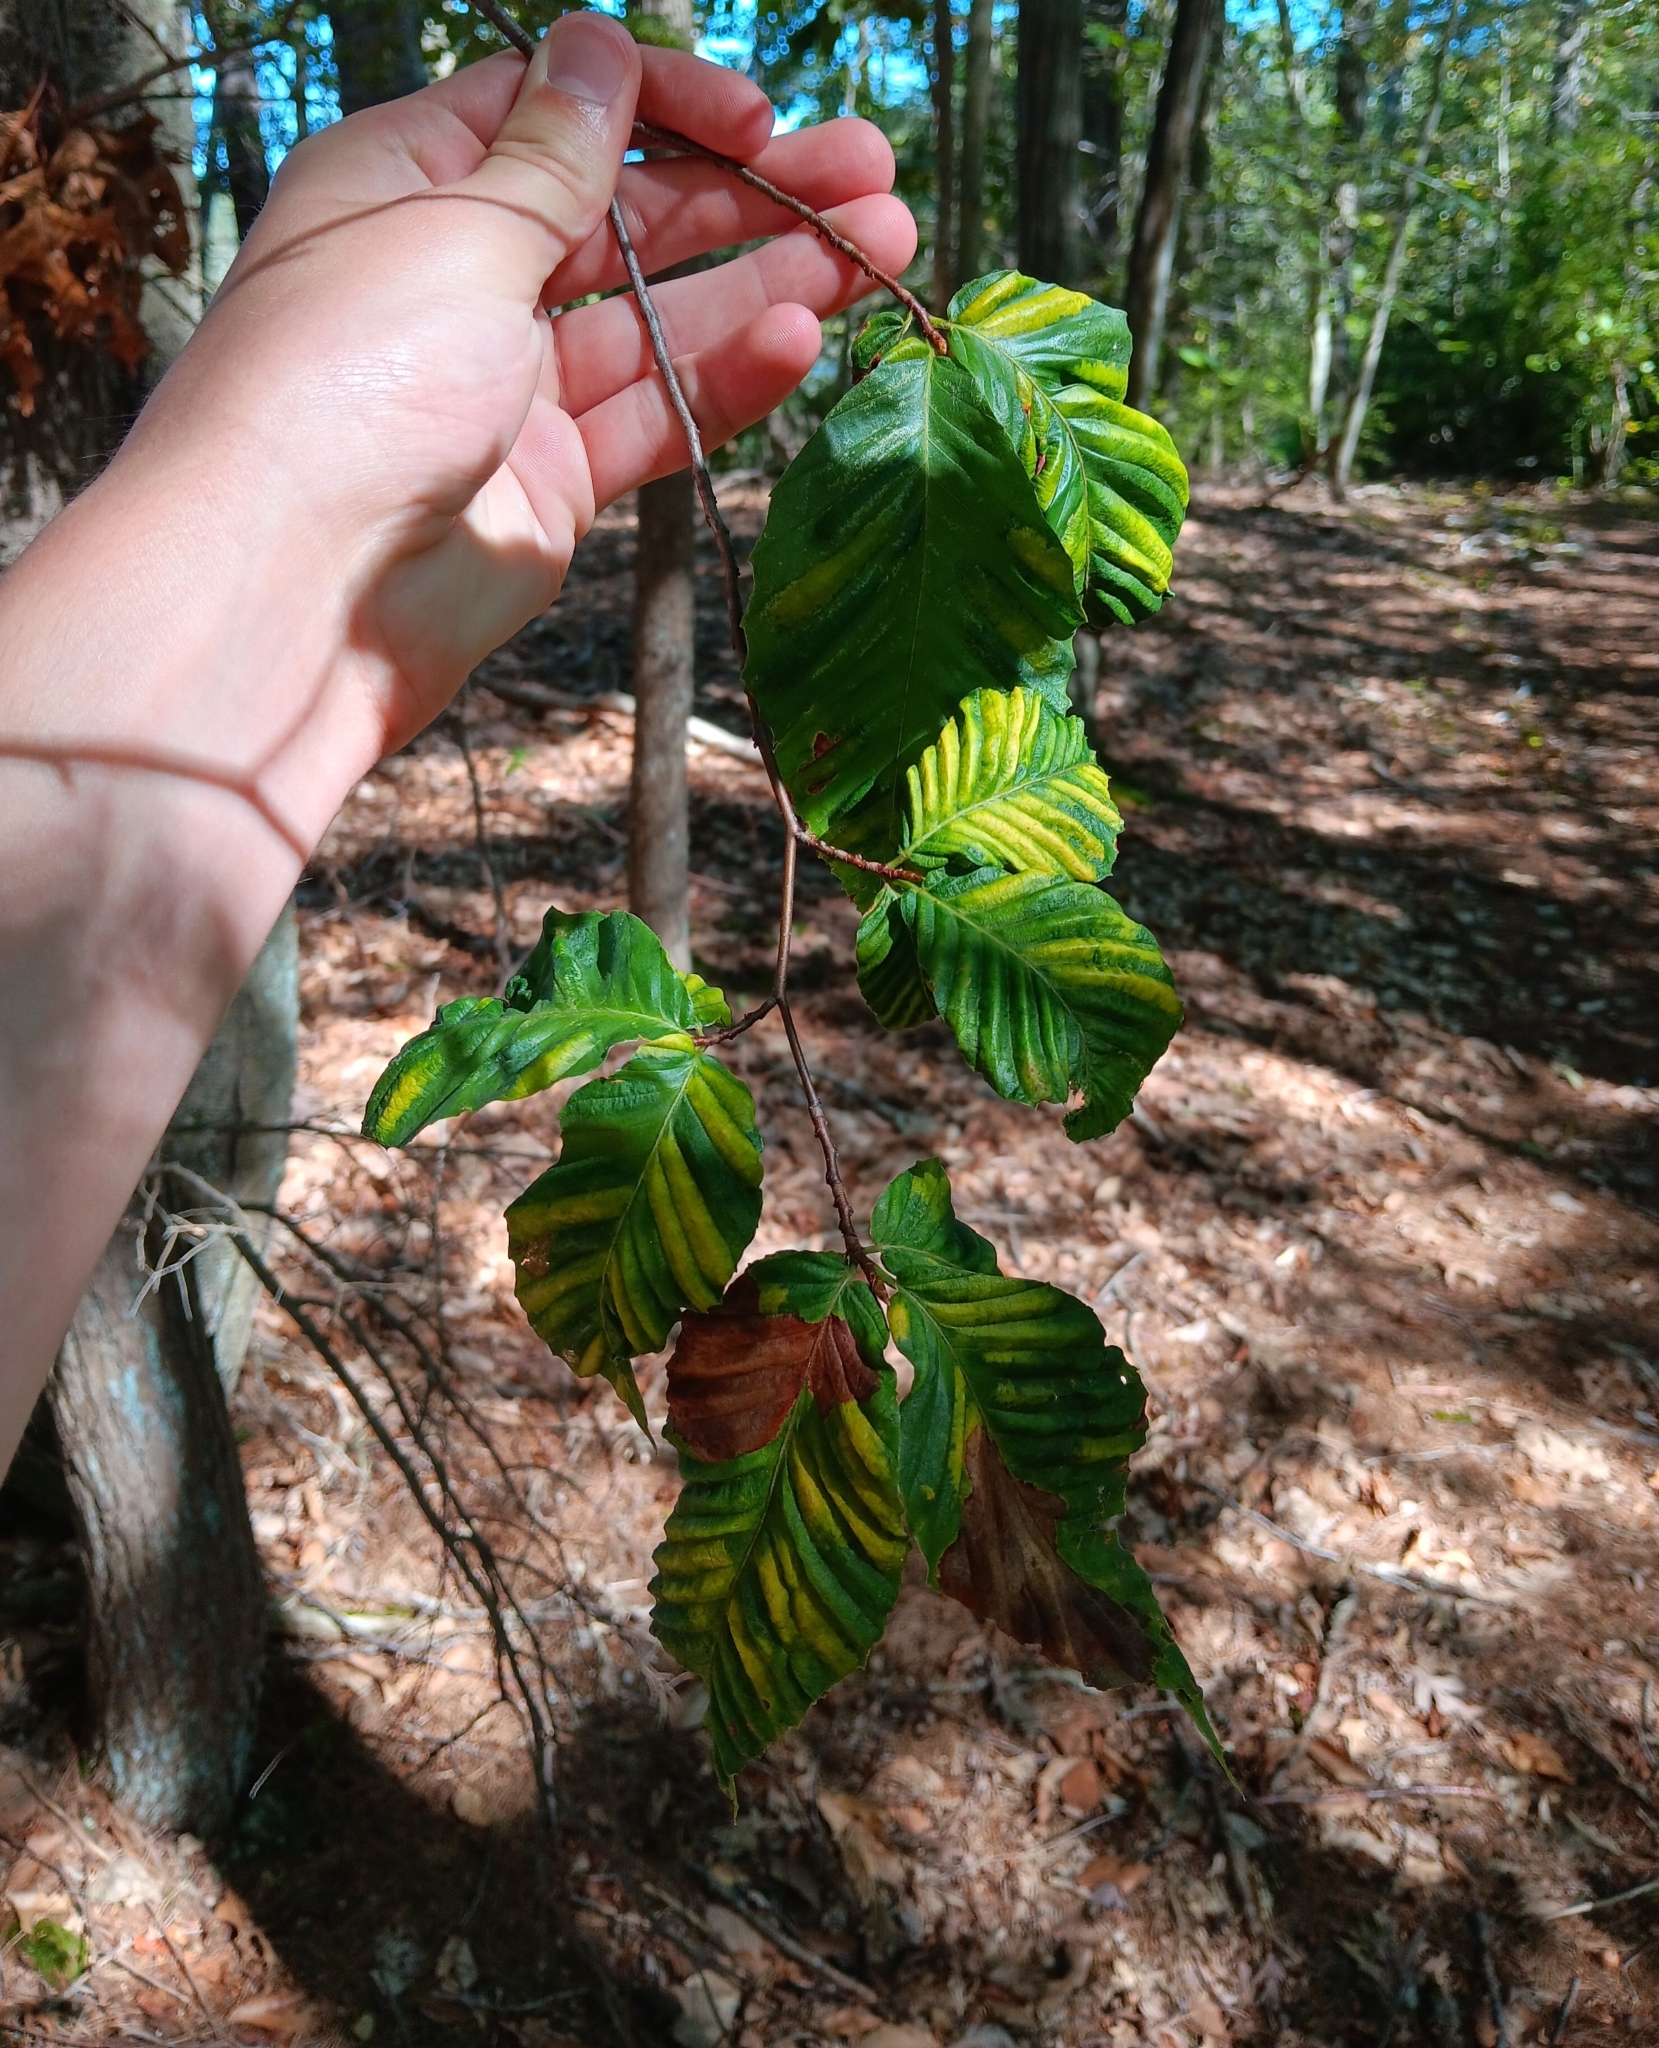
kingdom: Animalia
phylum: Nematoda
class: Chromadorea
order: Rhabditida
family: Anguinidae
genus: Litylenchus
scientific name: Litylenchus crenatae
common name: Beech leaf disease
